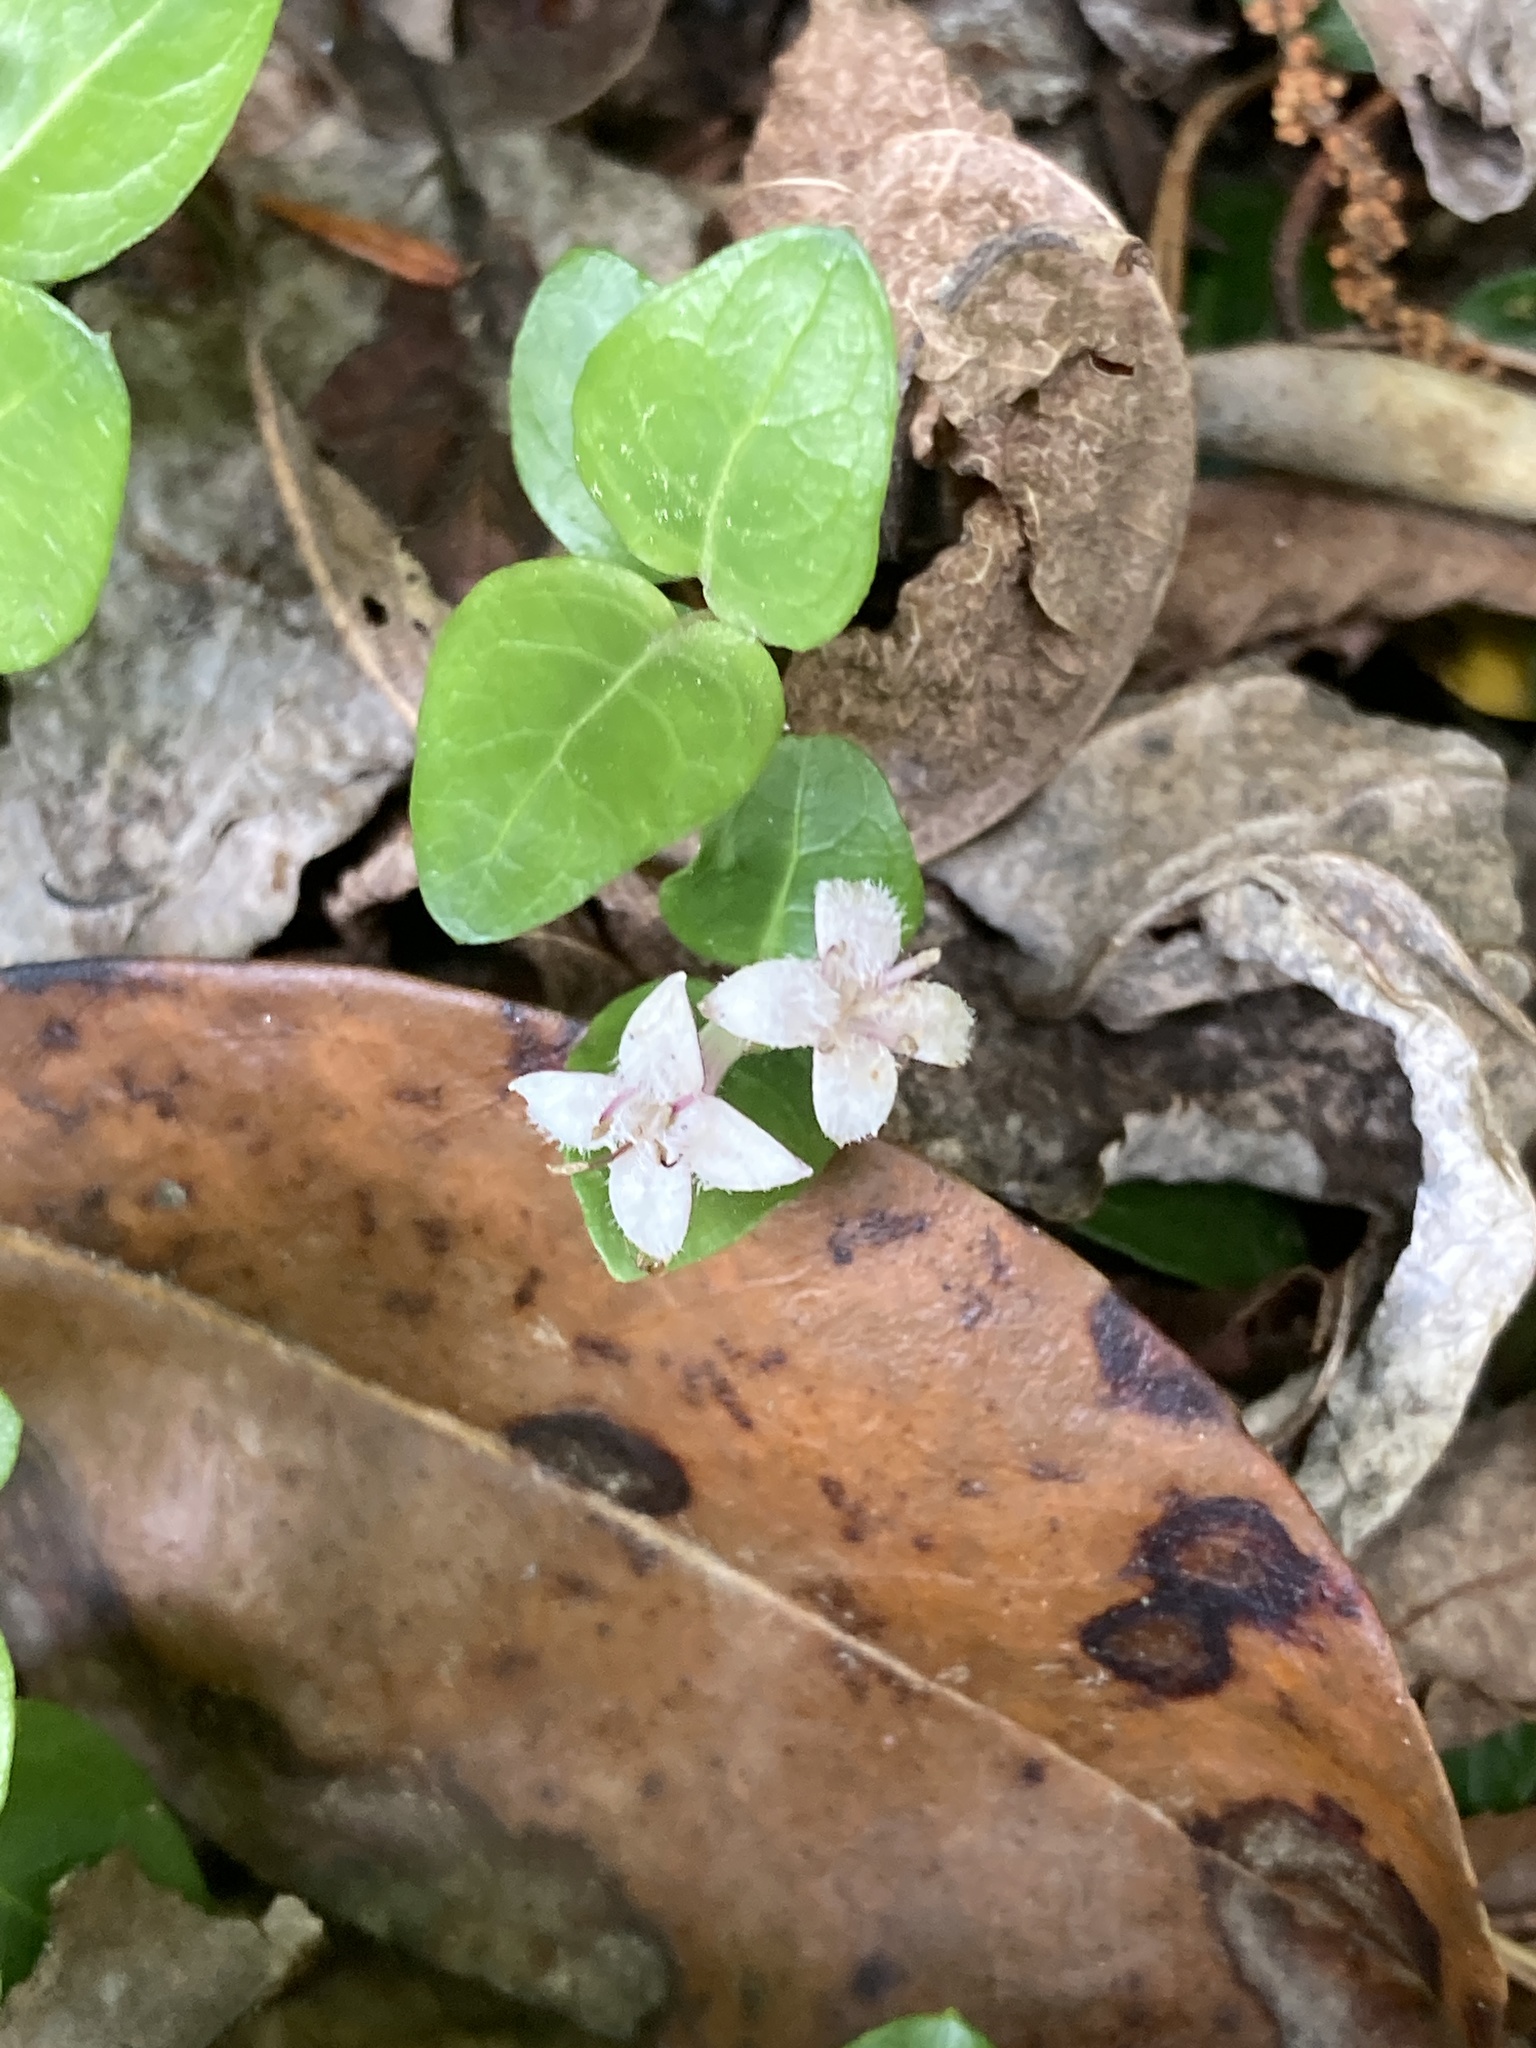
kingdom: Plantae
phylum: Tracheophyta
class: Magnoliopsida
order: Gentianales
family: Rubiaceae
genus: Mitchella
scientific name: Mitchella repens
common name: Partridge-berry
